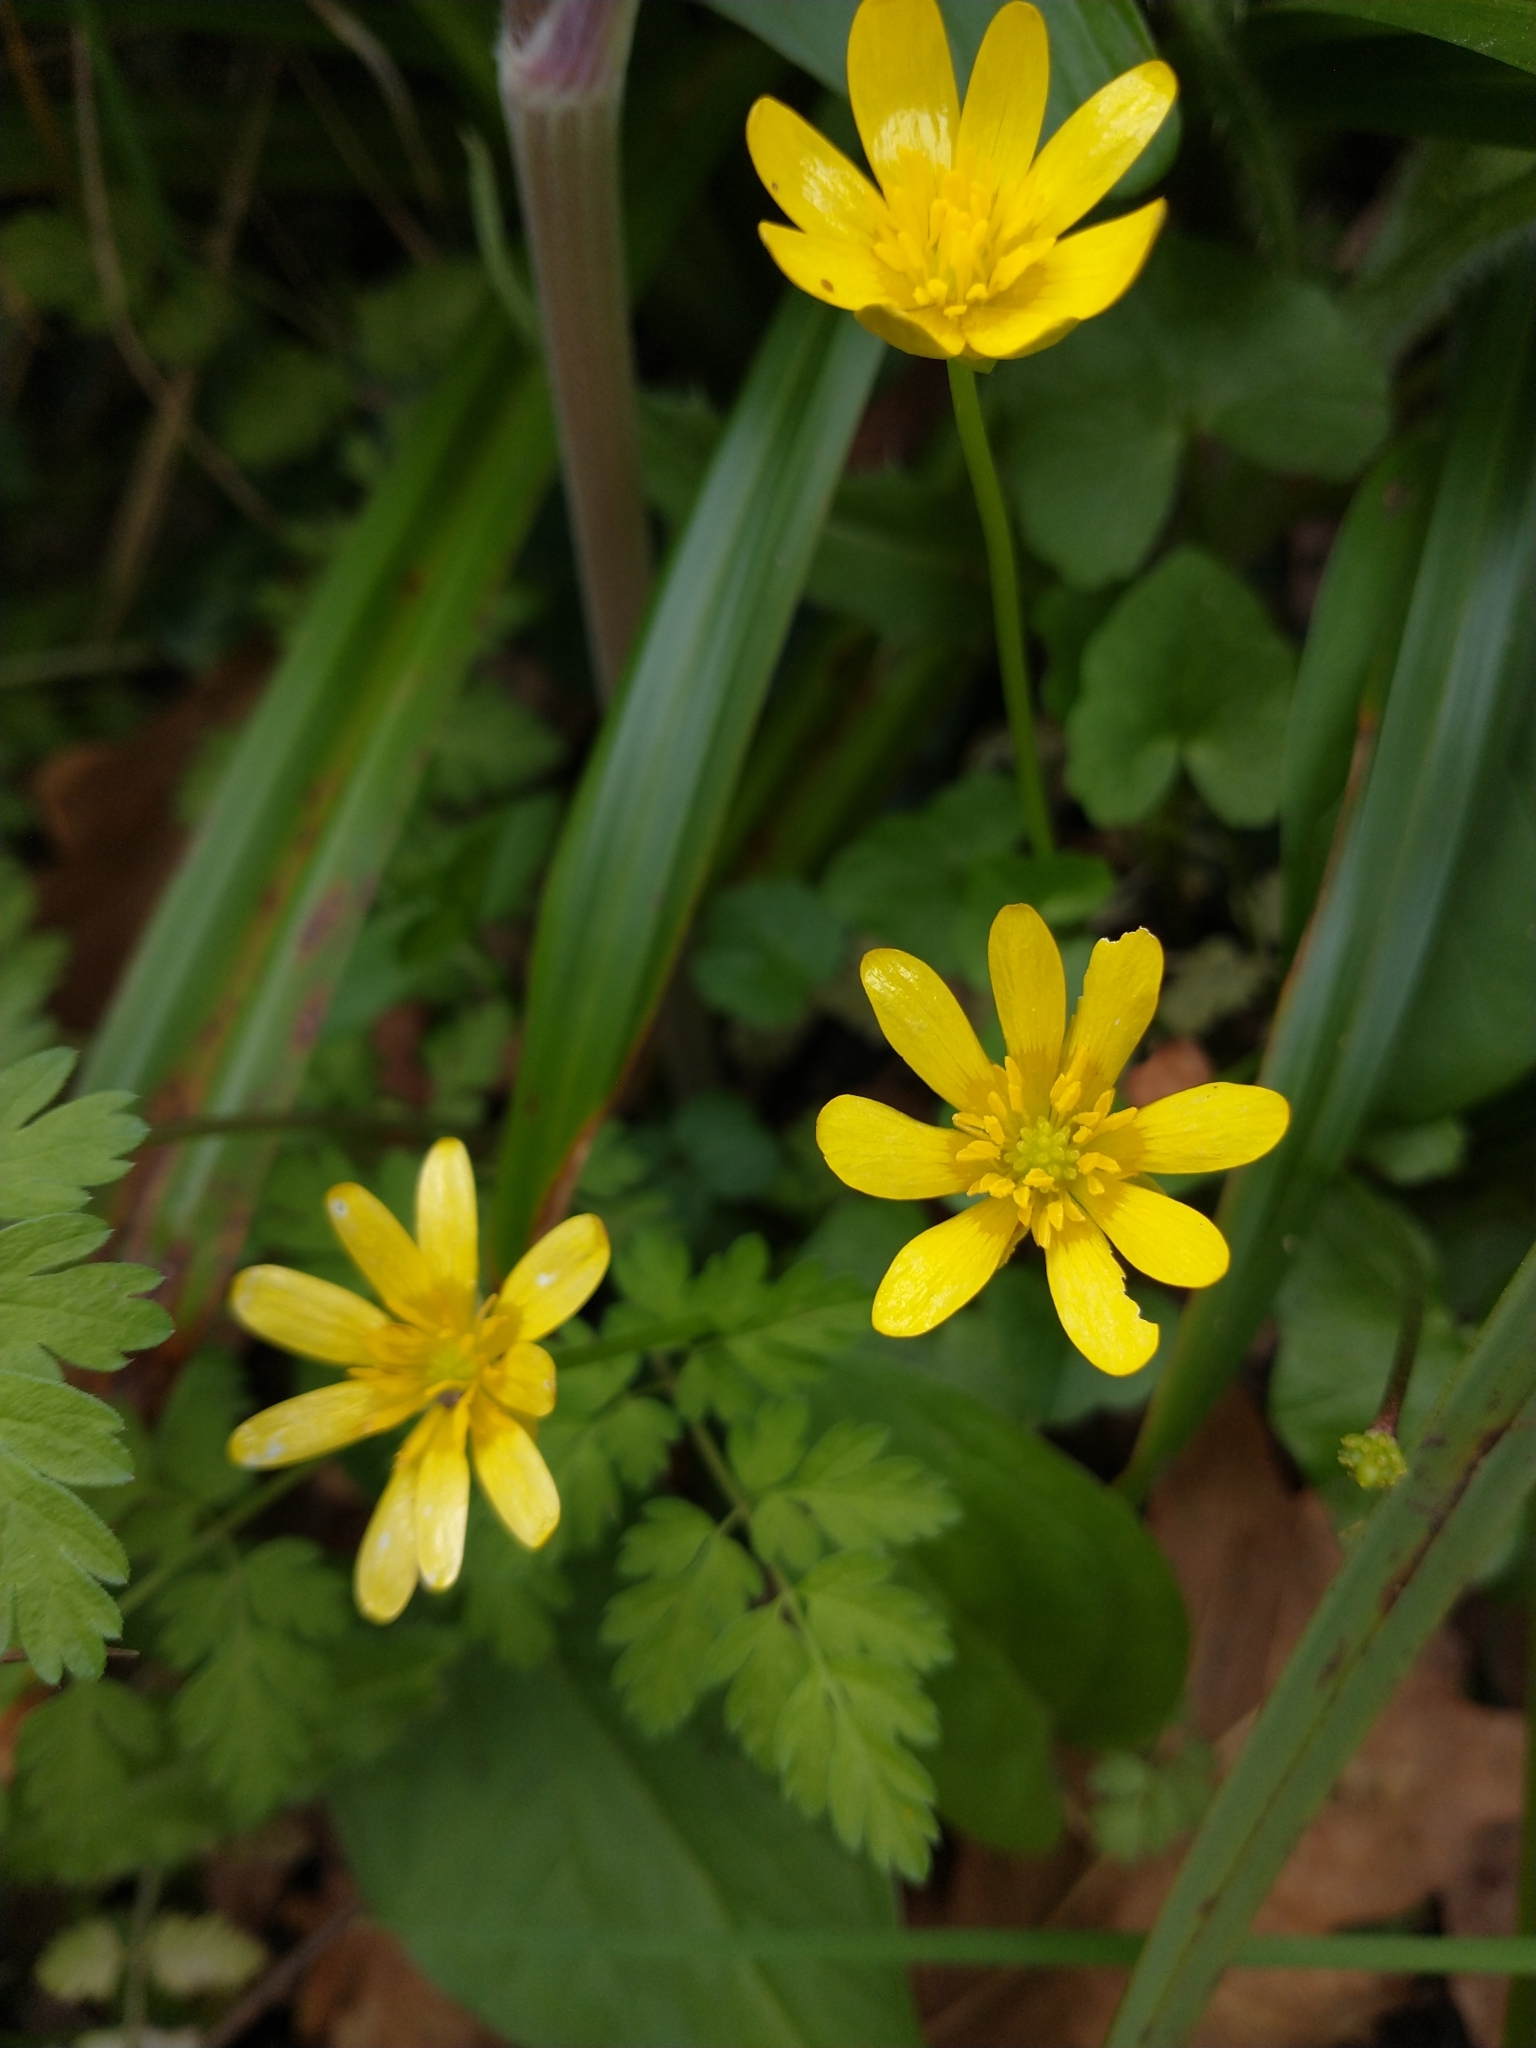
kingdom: Plantae
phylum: Tracheophyta
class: Magnoliopsida
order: Ranunculales
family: Ranunculaceae
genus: Ficaria
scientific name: Ficaria verna
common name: Lesser celandine
